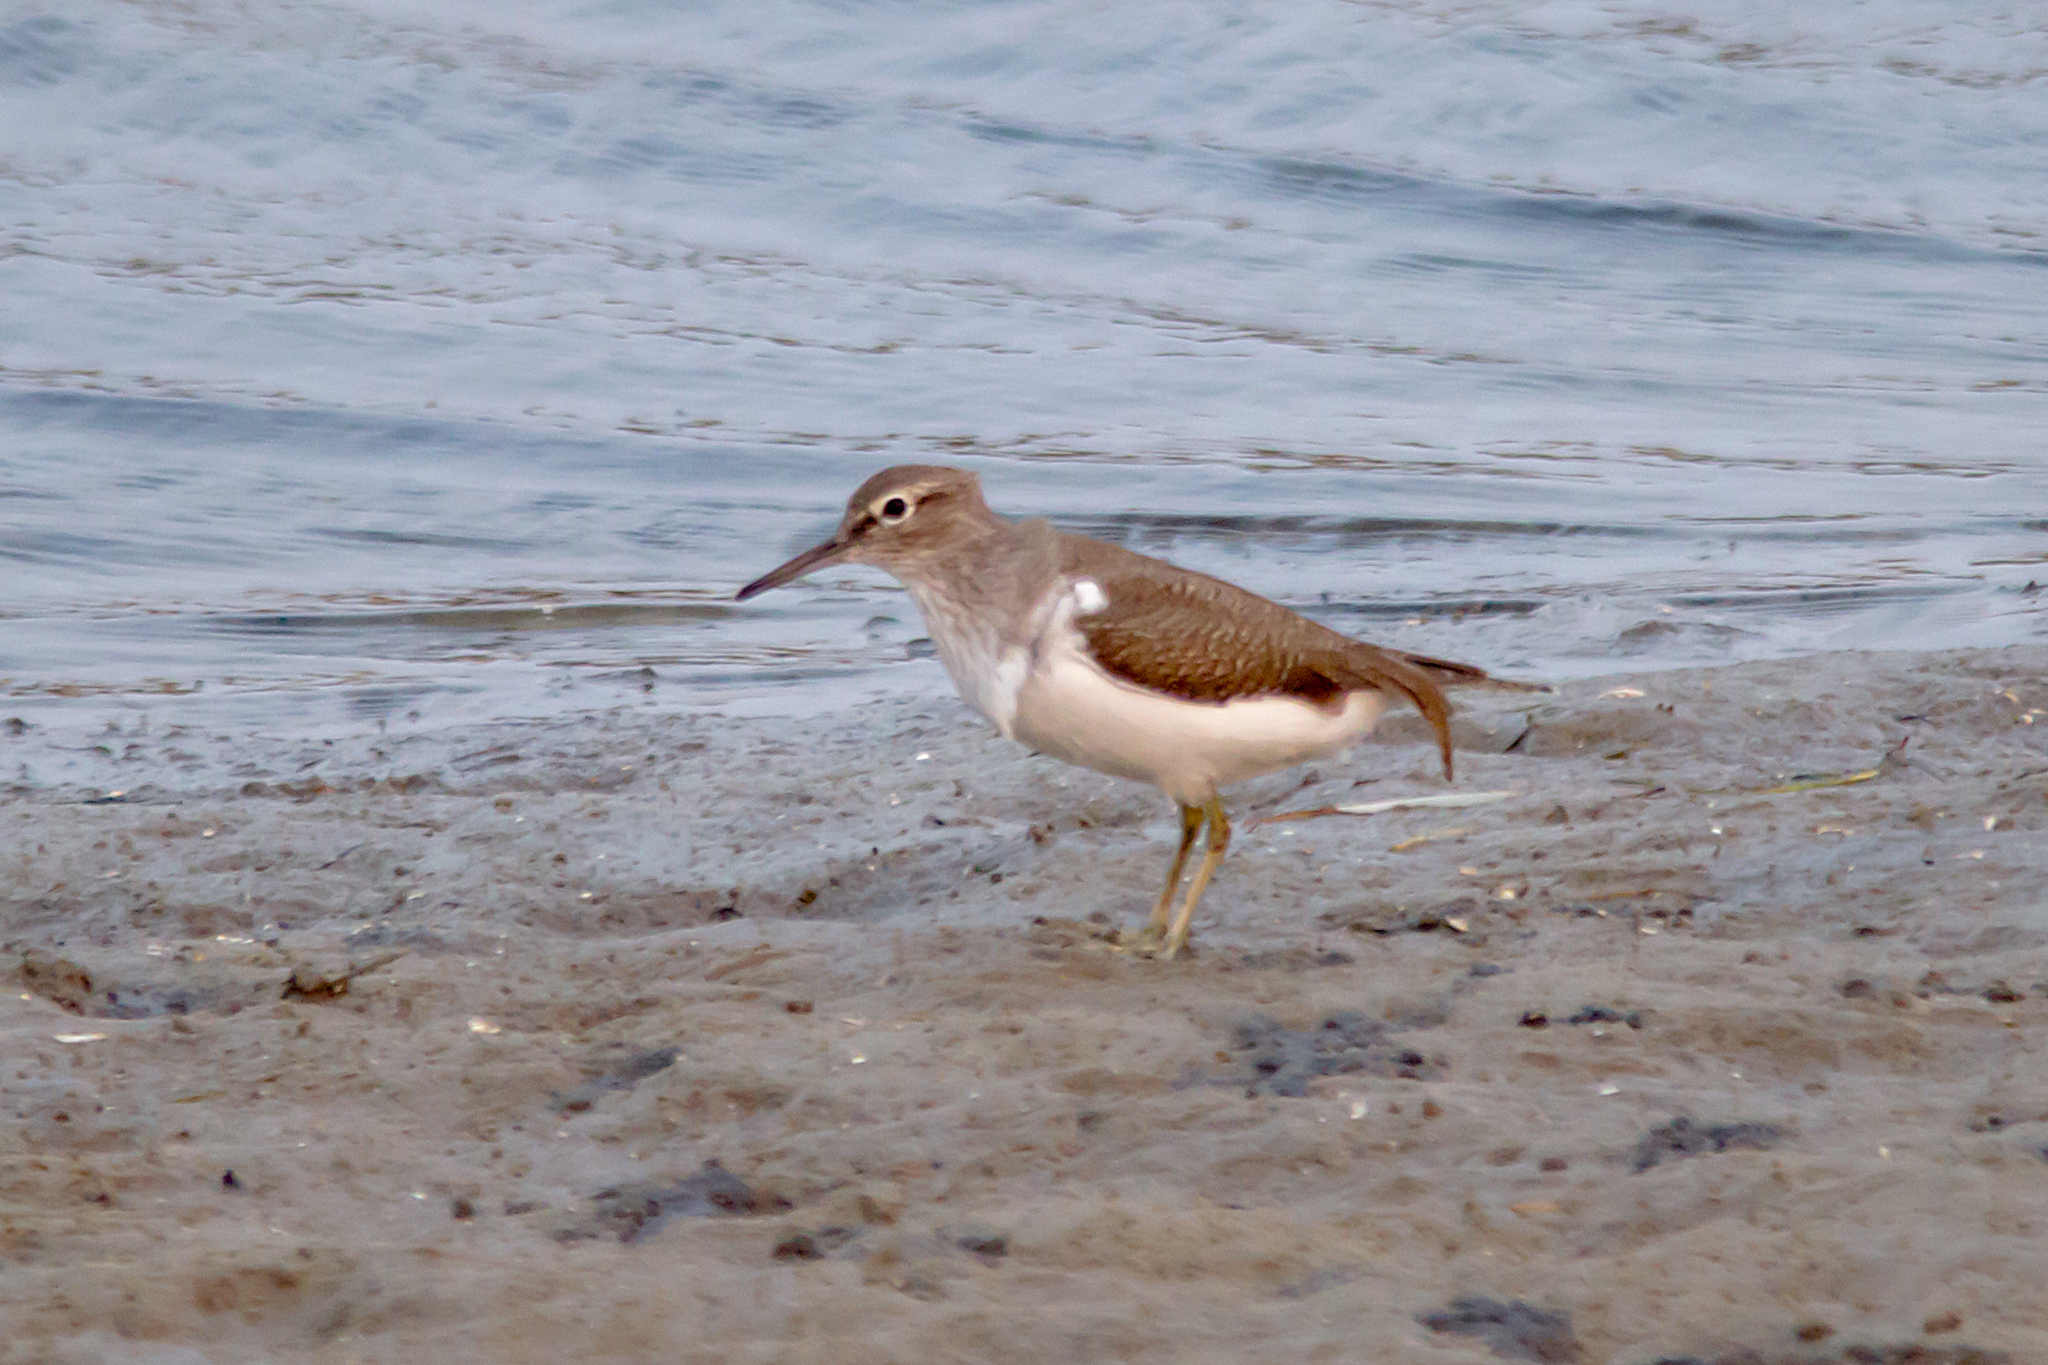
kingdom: Animalia
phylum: Chordata
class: Aves
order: Charadriiformes
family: Scolopacidae
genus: Actitis
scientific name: Actitis hypoleucos
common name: Common sandpiper
